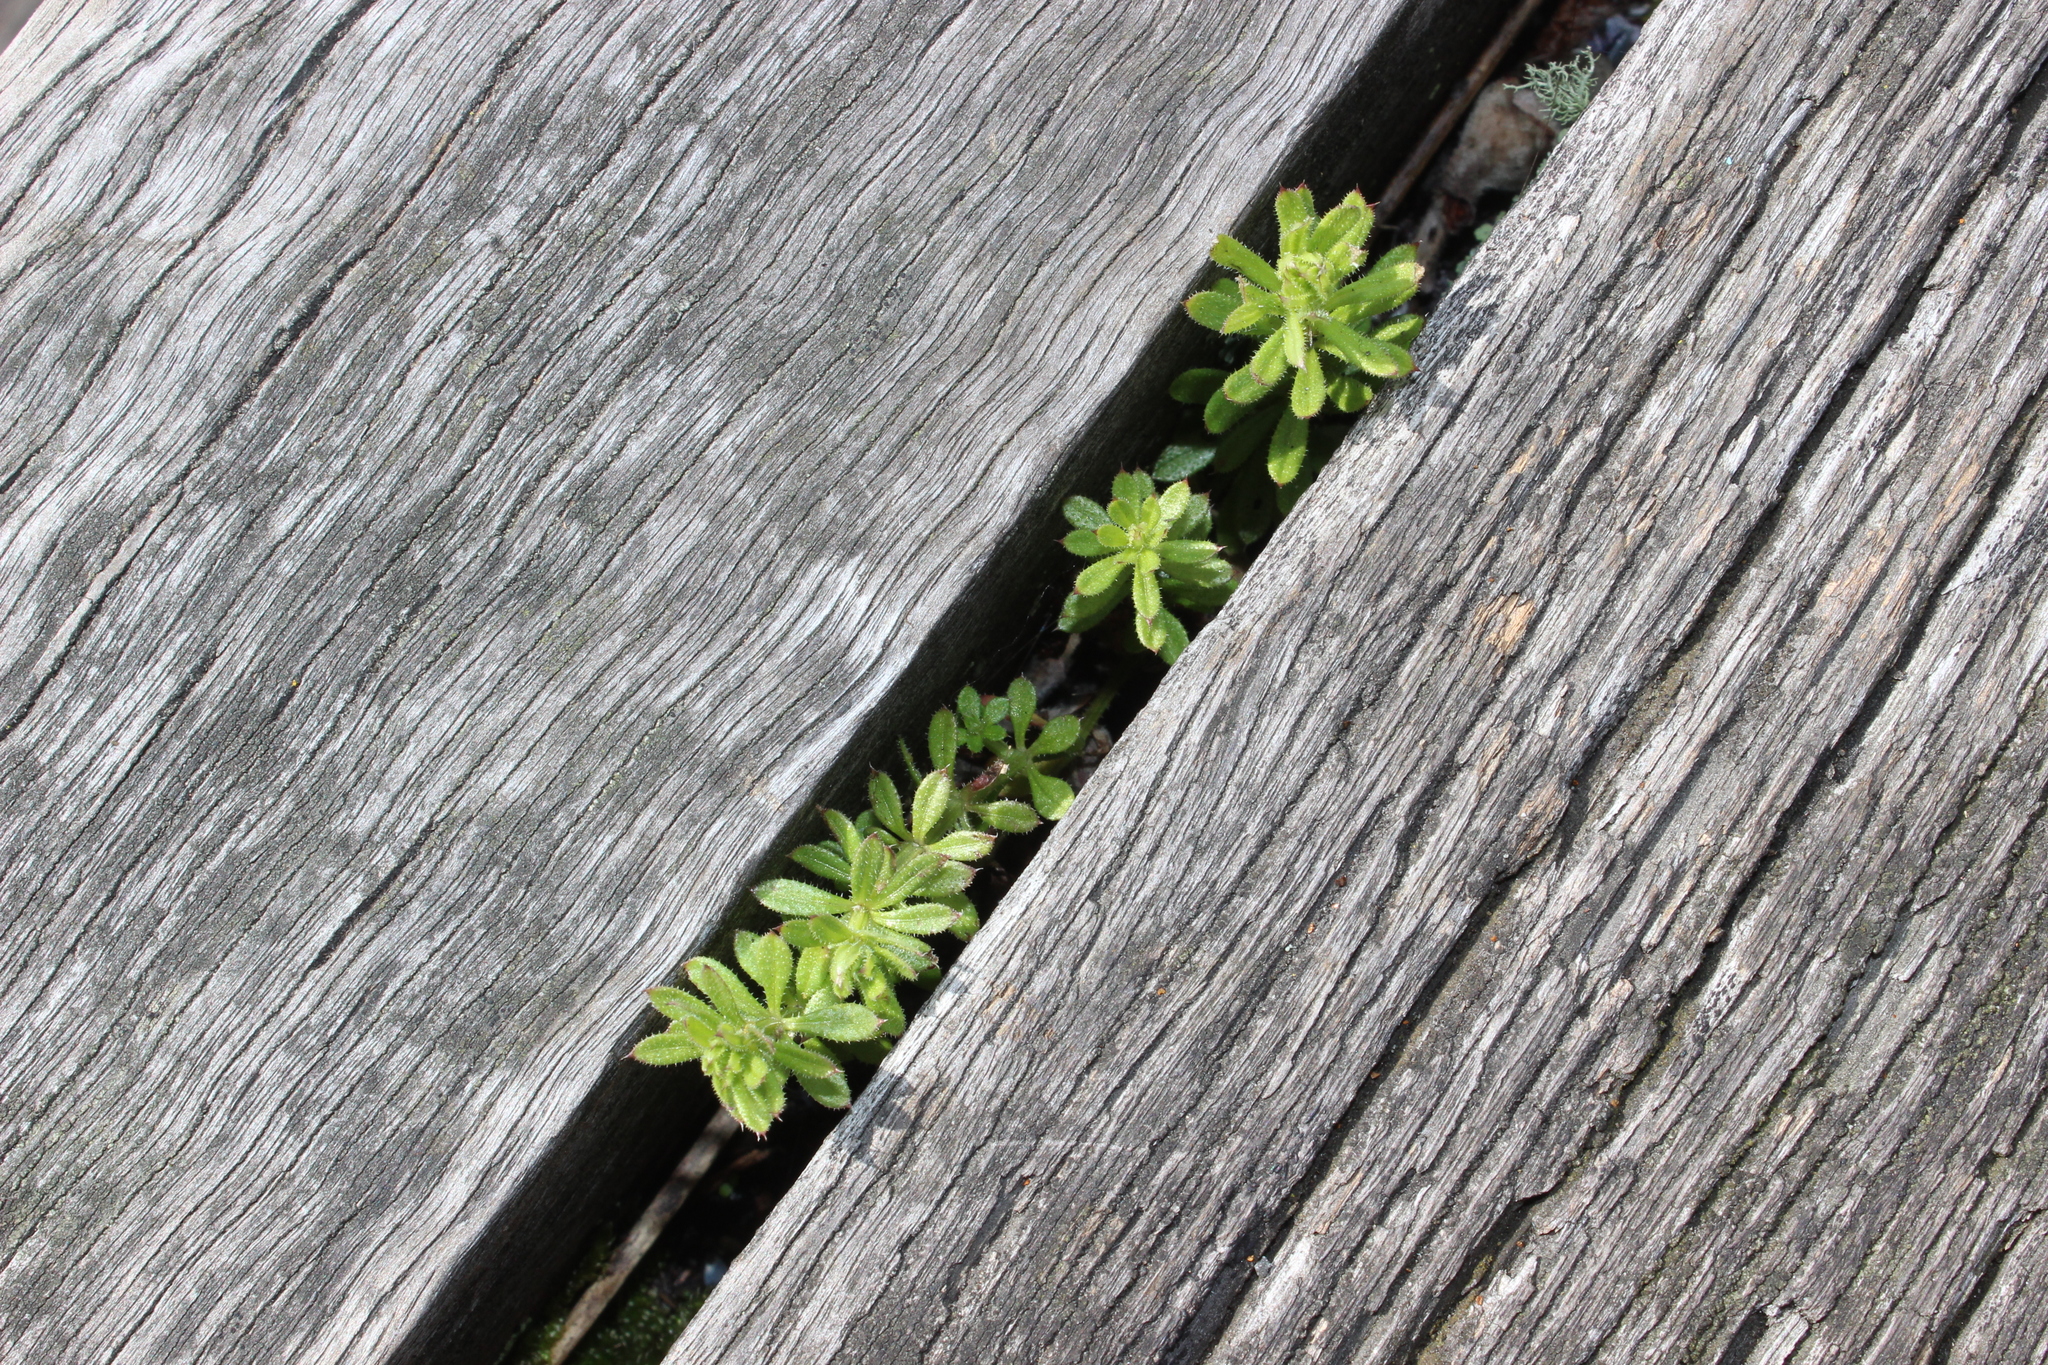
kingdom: Plantae
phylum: Tracheophyta
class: Magnoliopsida
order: Gentianales
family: Rubiaceae
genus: Galium
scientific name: Galium aparine
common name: Cleavers
